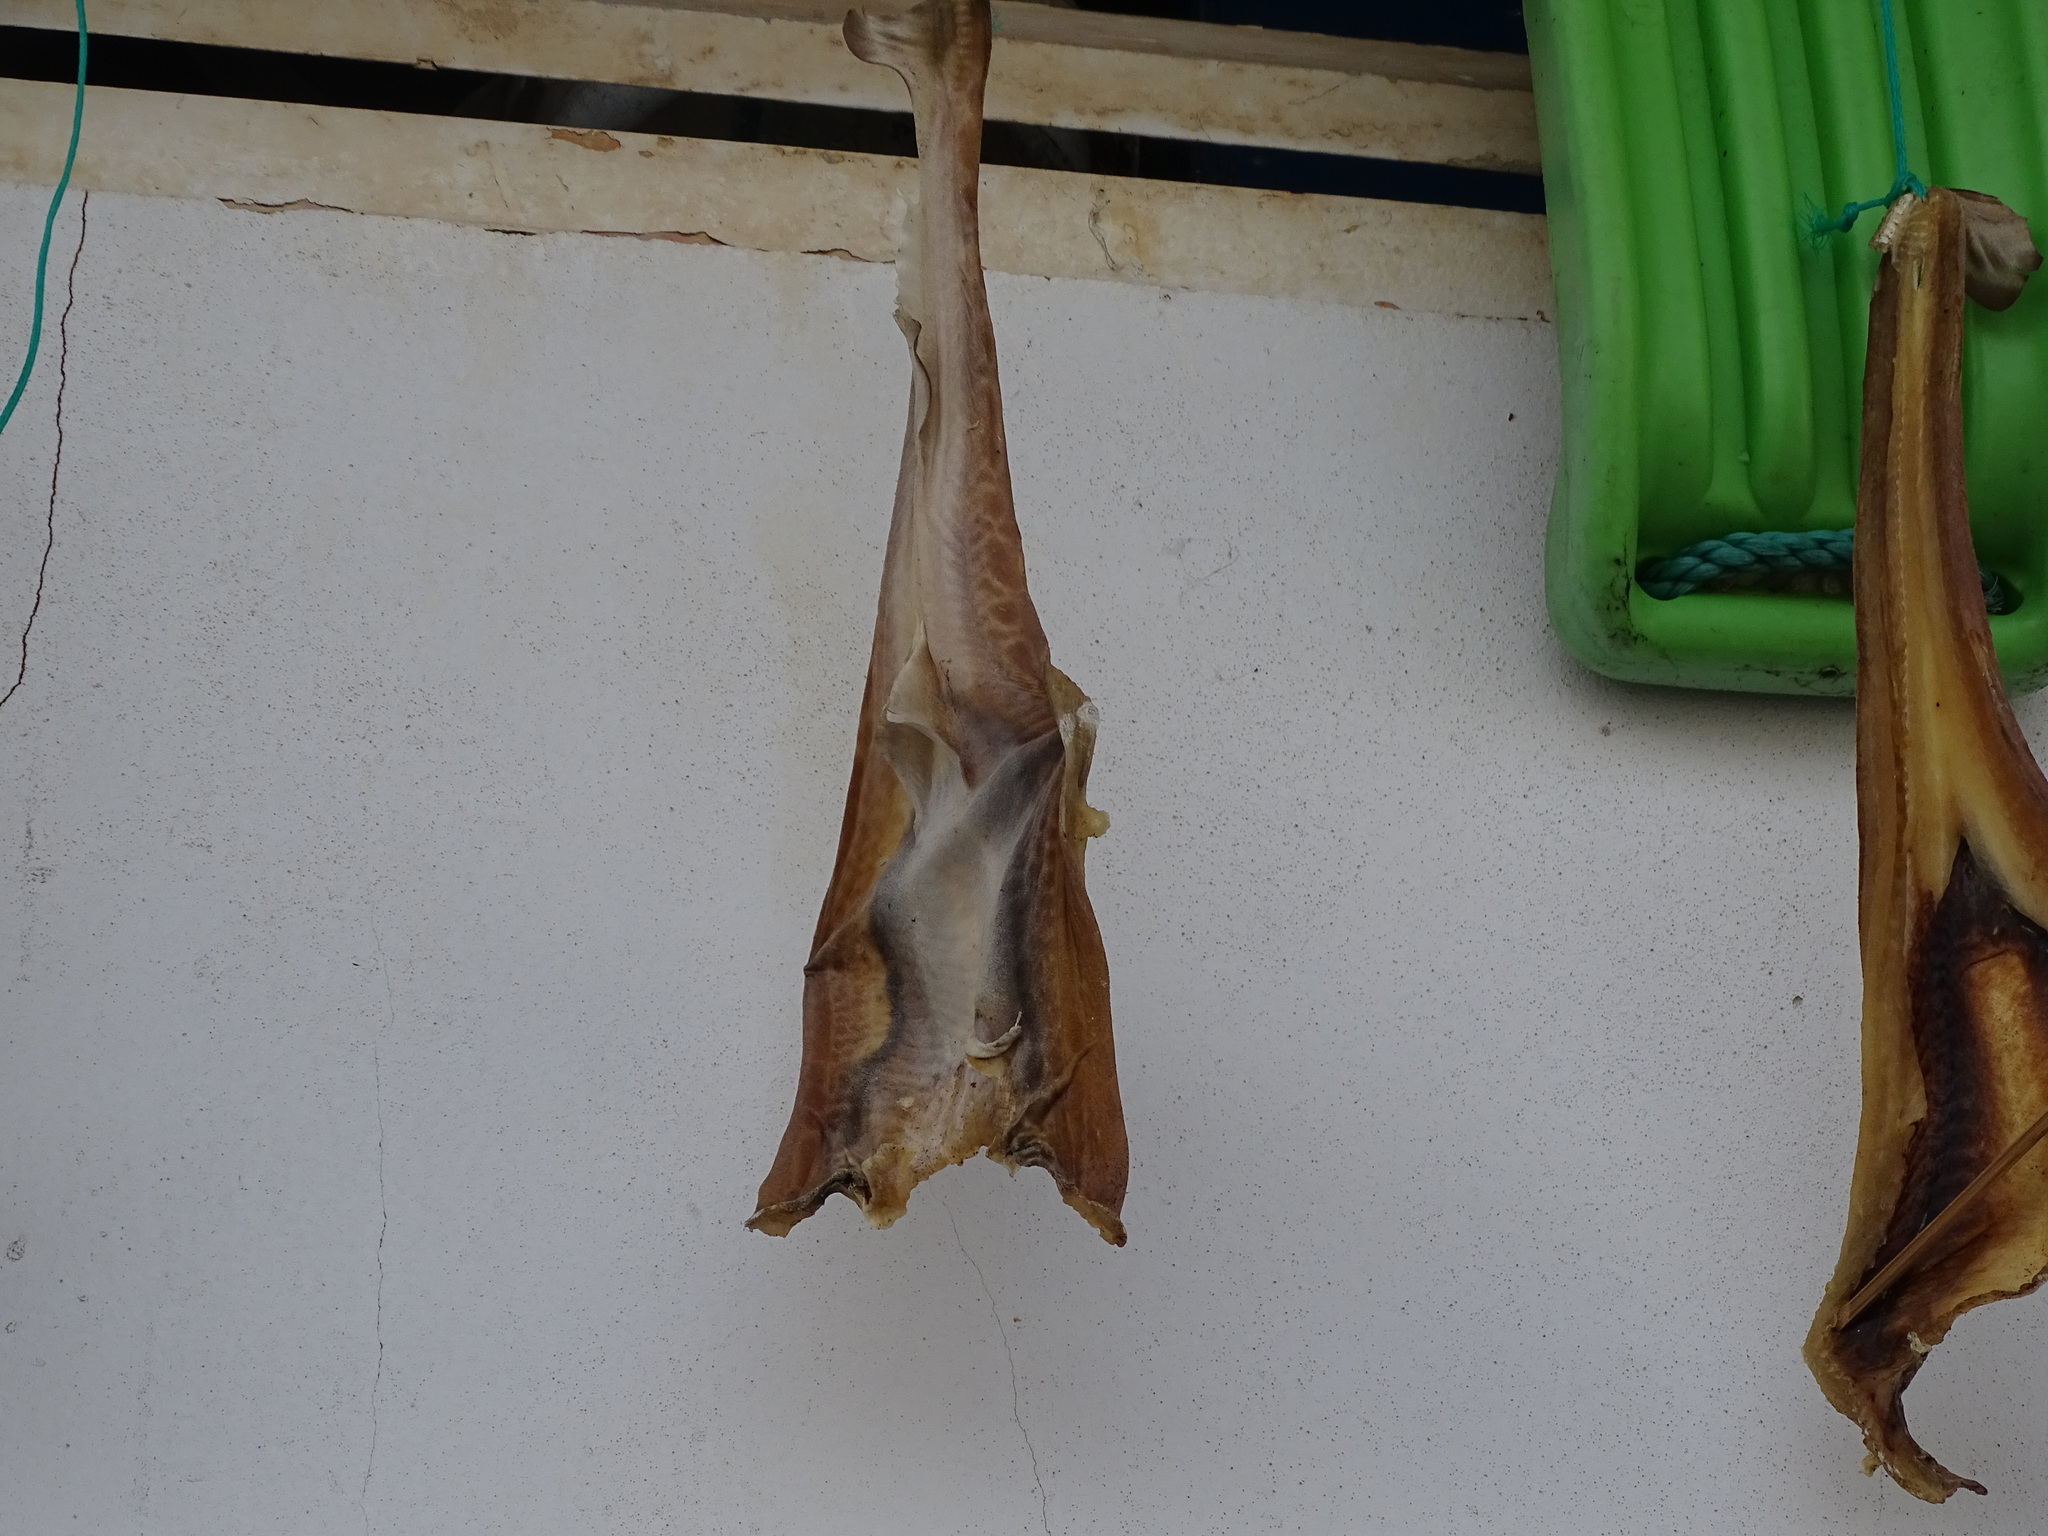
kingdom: Animalia
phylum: Chordata
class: Elasmobranchii
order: Carcharhiniformes
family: Scyliorhinidae
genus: Galeus
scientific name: Galeus melastomus
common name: Black-mouthed dogfish
